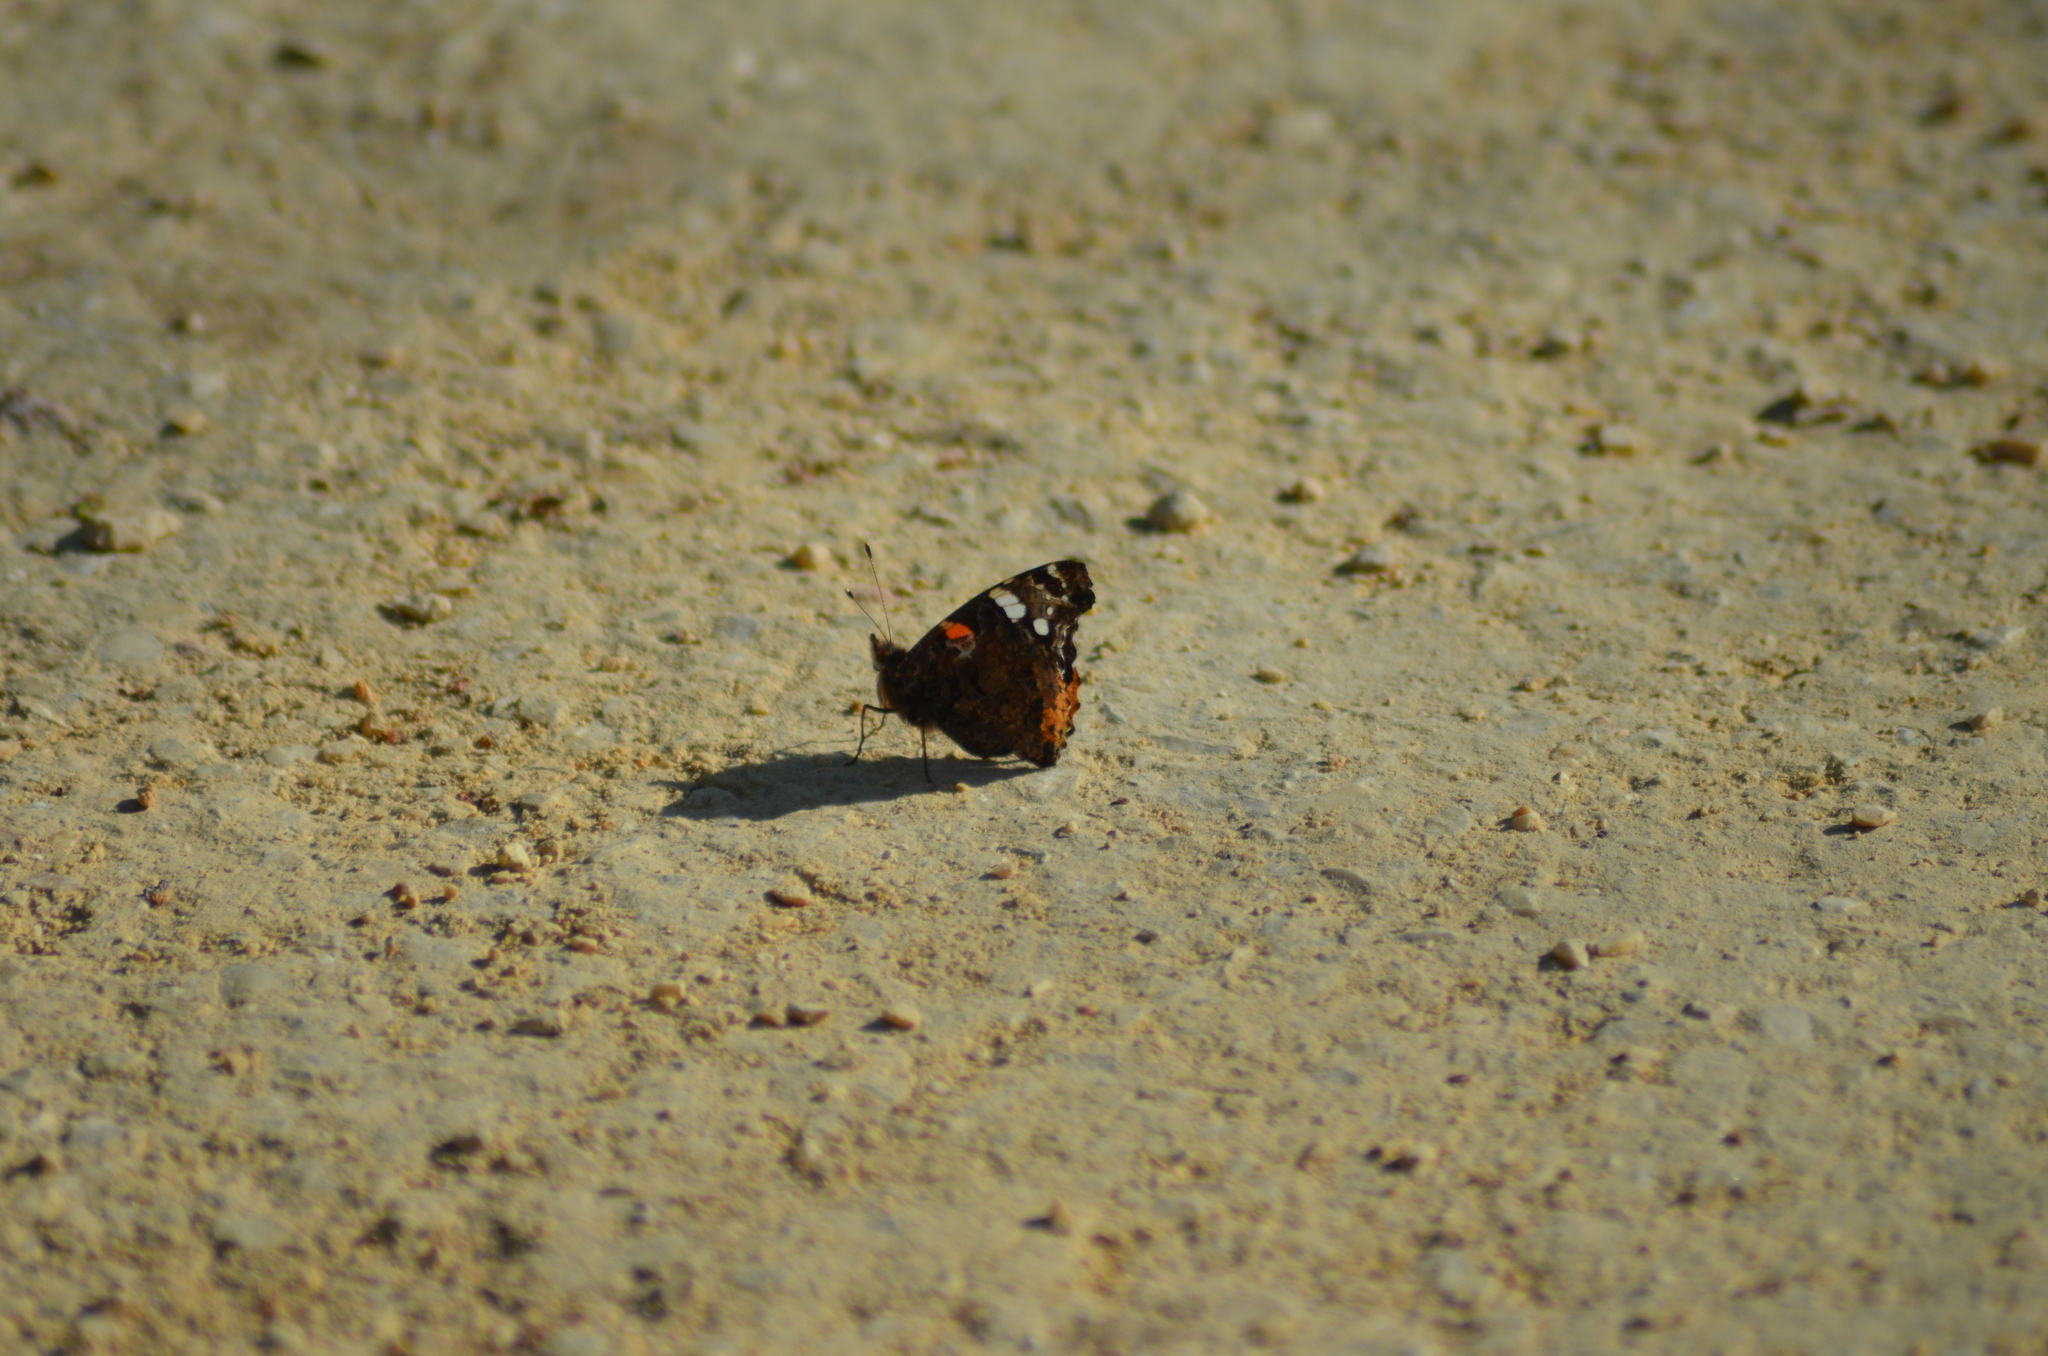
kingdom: Animalia
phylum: Arthropoda
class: Insecta
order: Lepidoptera
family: Nymphalidae
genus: Vanessa
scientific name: Vanessa atalanta
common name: Red admiral
